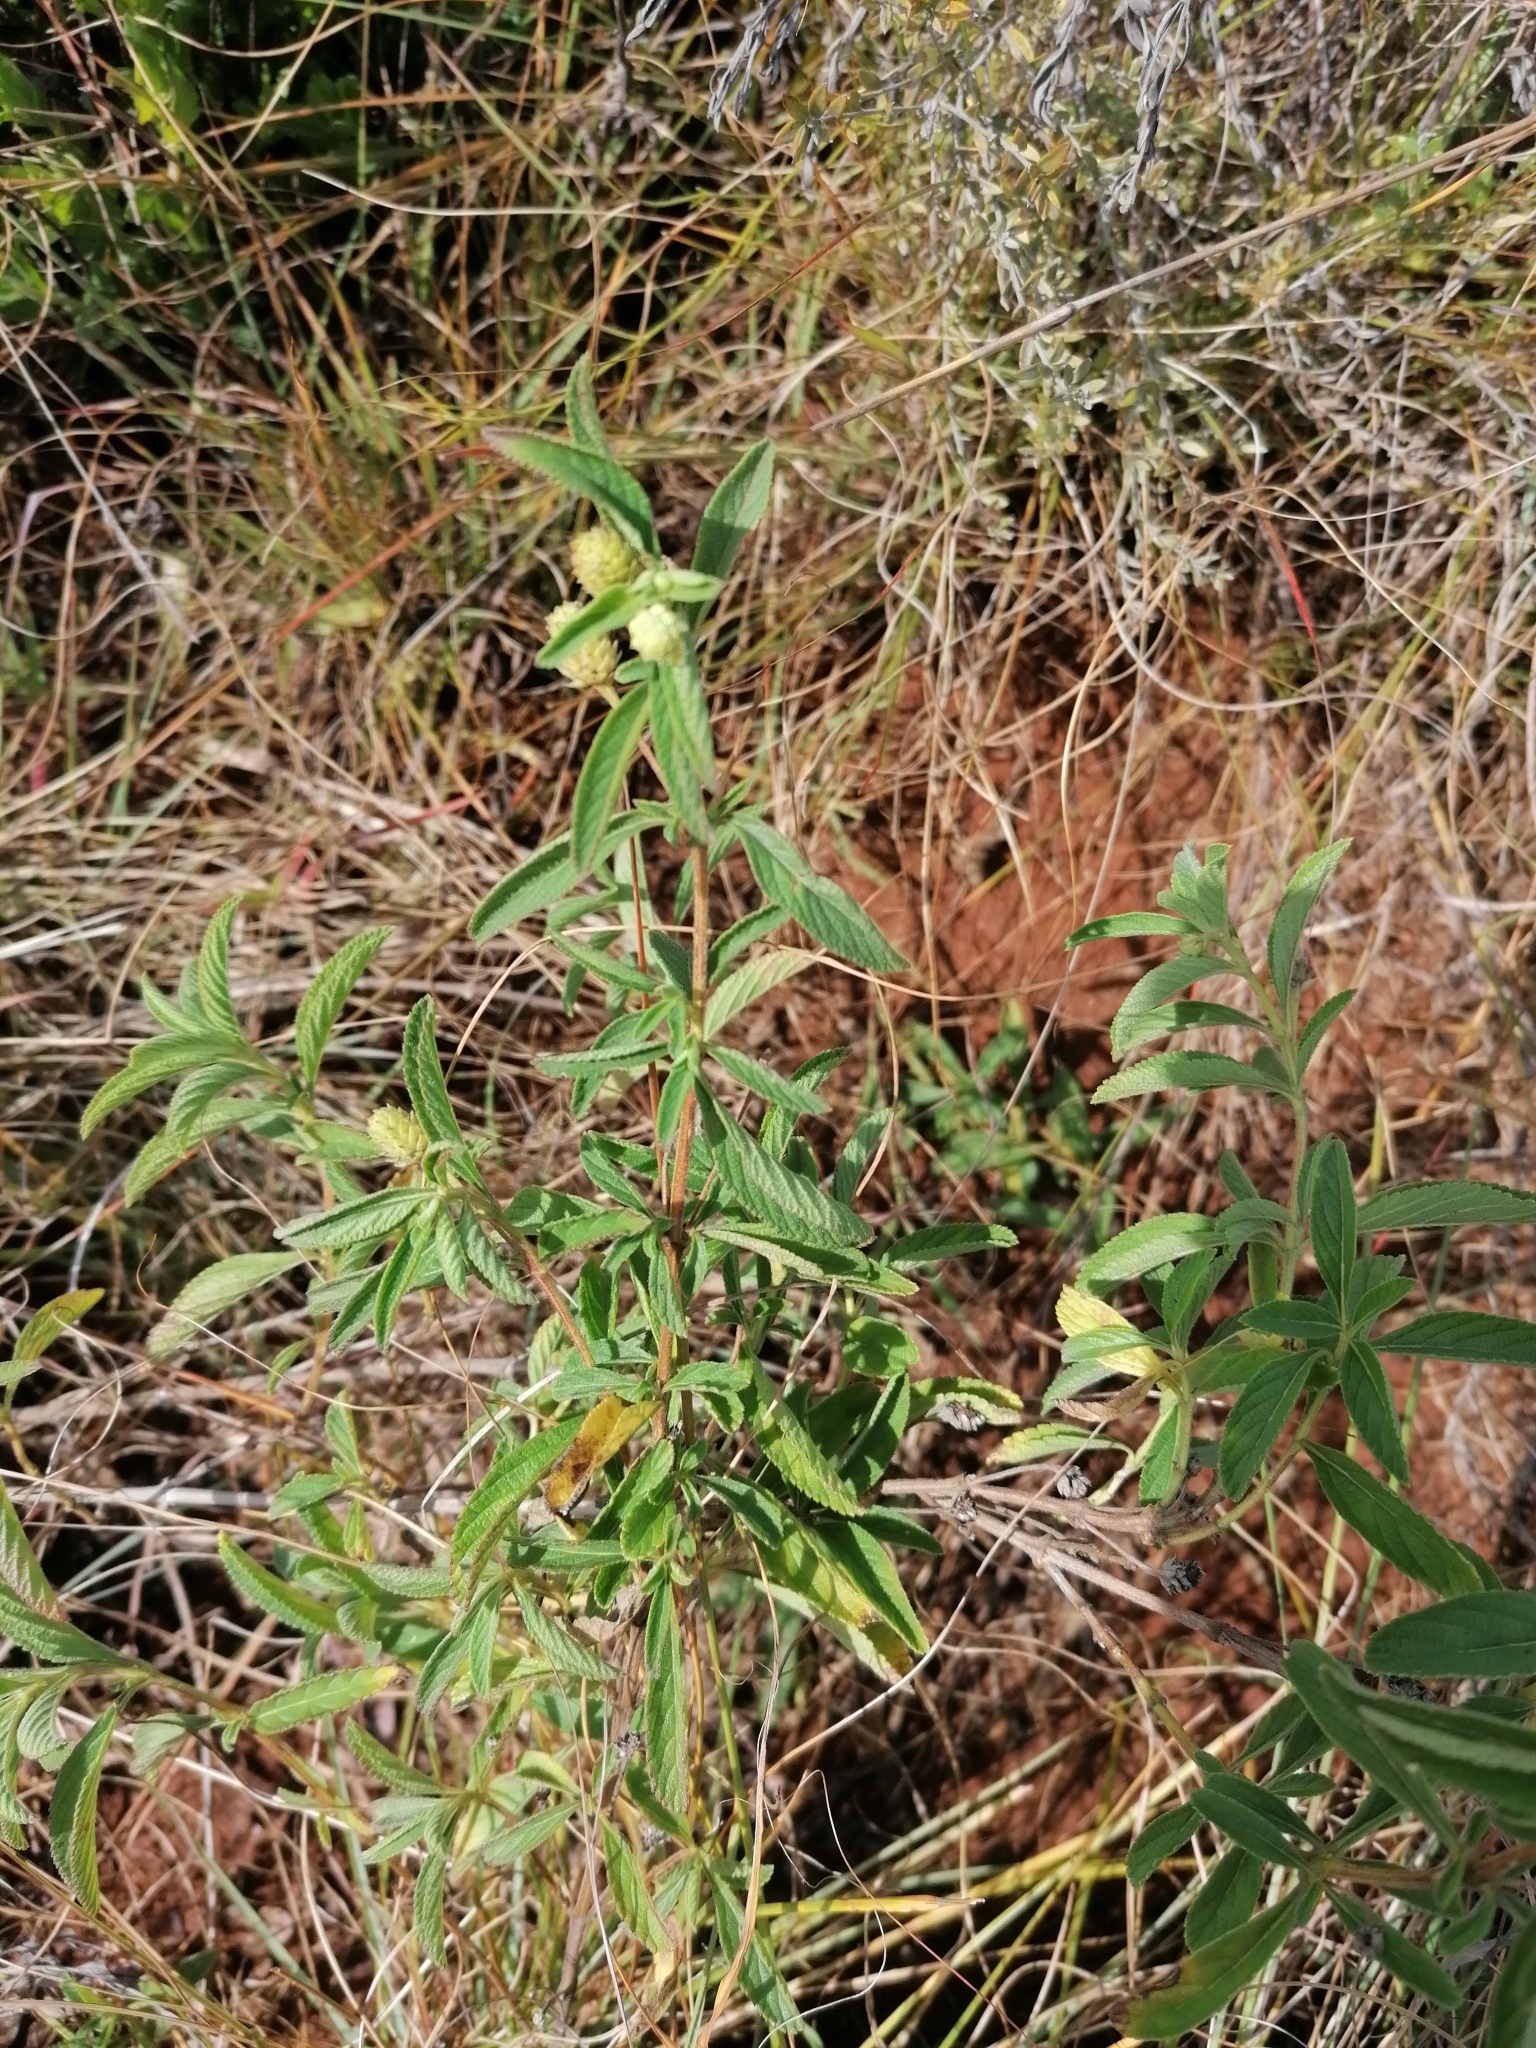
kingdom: Plantae
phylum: Tracheophyta
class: Magnoliopsida
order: Lamiales
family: Verbenaceae
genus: Lippia
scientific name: Lippia javanica
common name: Lemonbush
